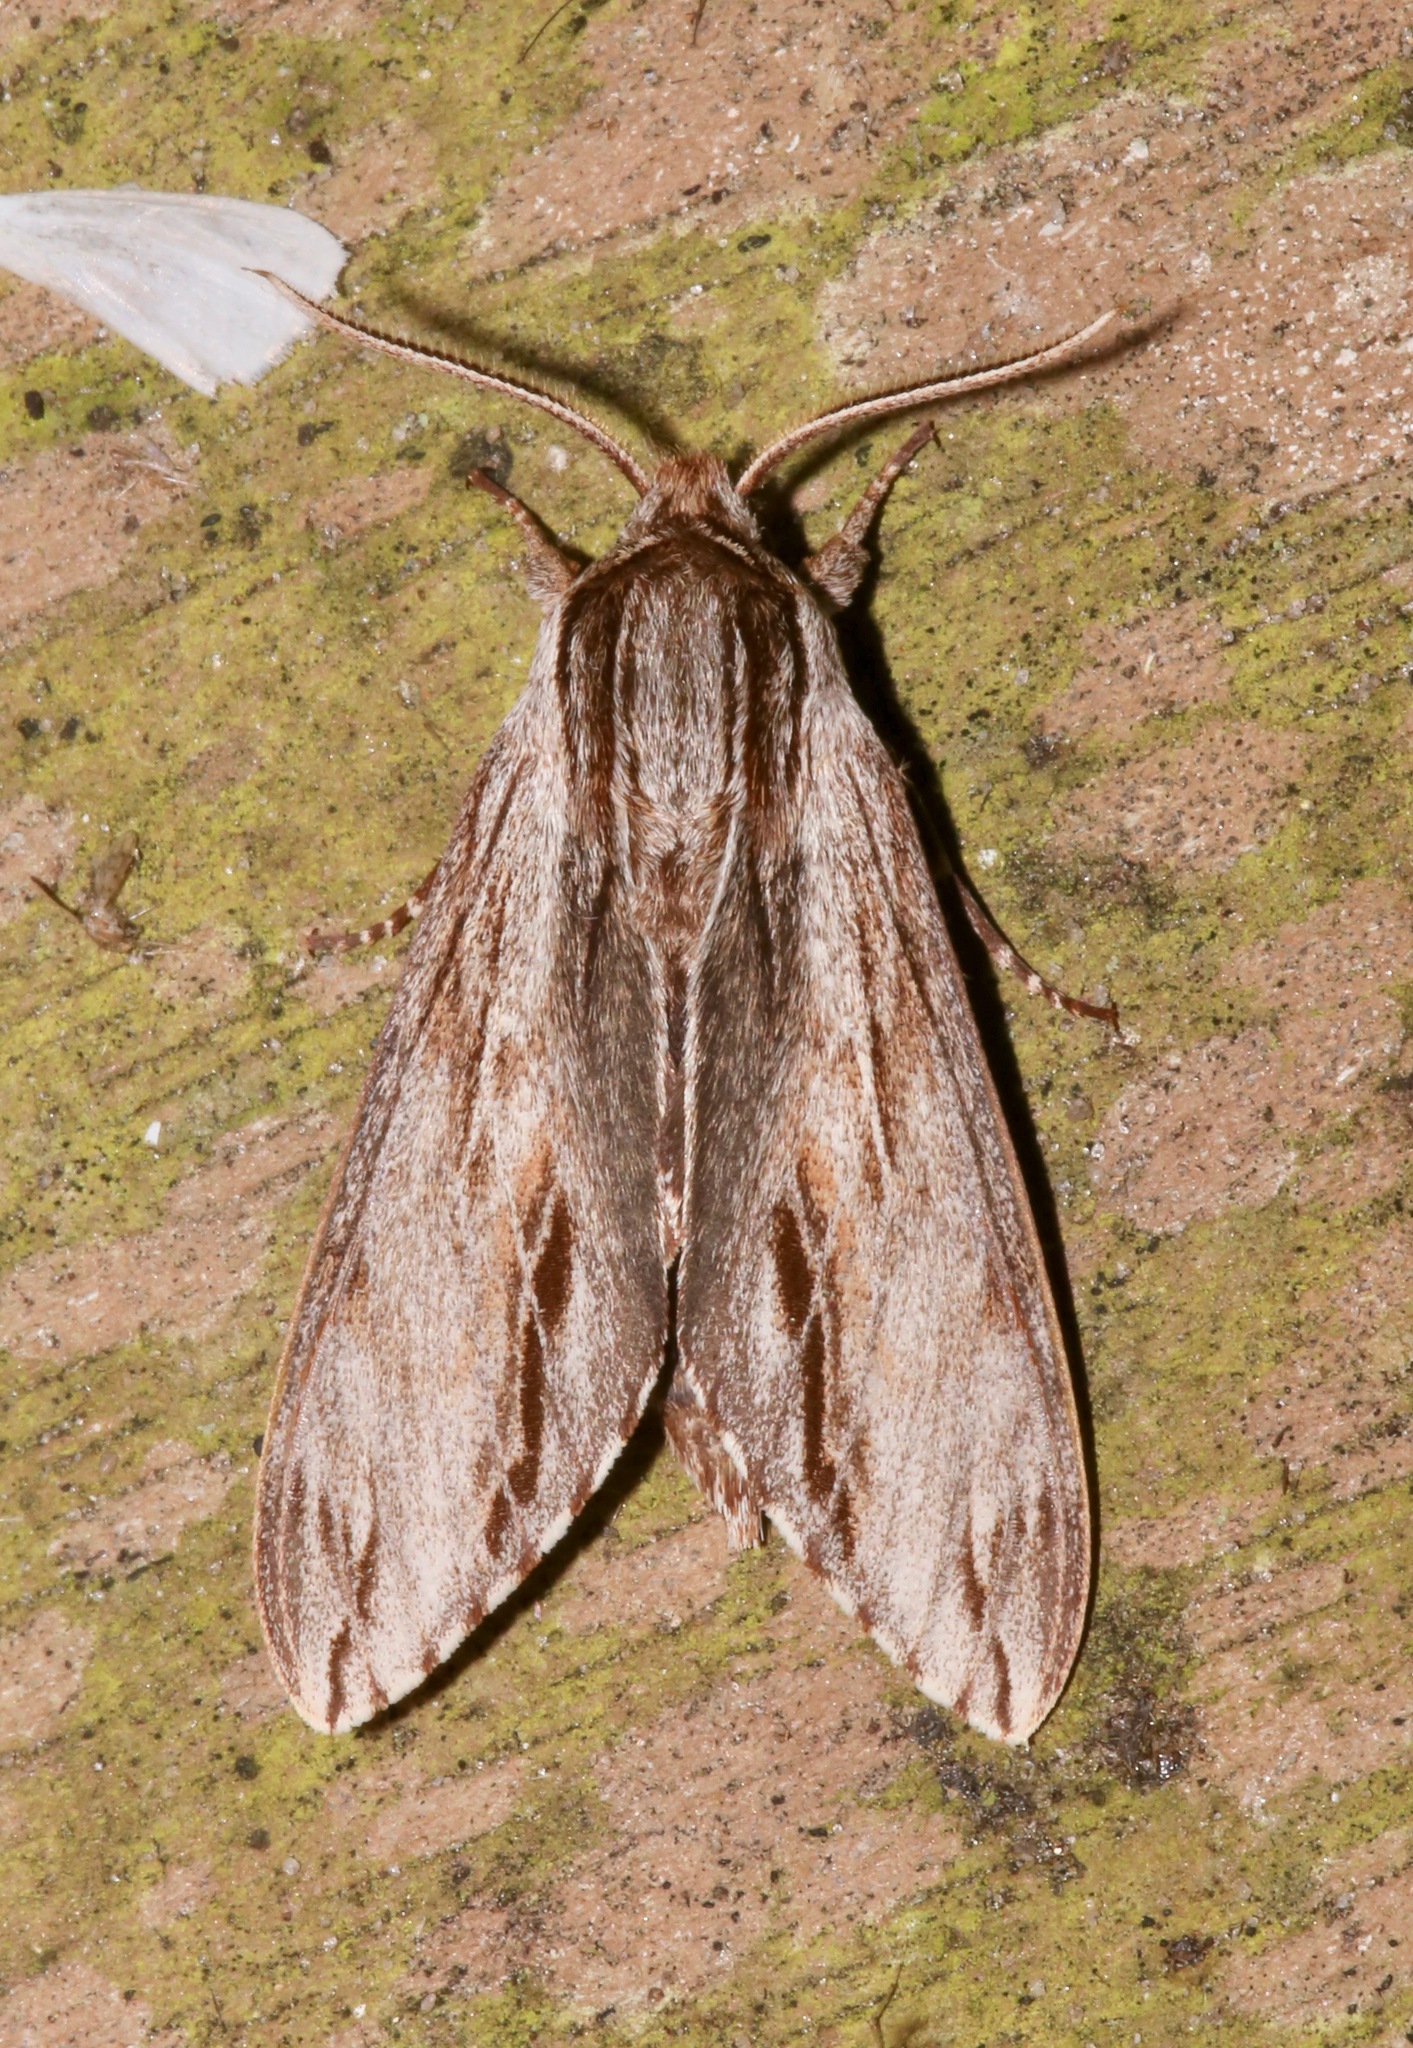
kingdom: Animalia
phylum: Arthropoda
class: Insecta
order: Lepidoptera
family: Sphingidae
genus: Isoparce
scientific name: Isoparce cupressi
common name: Cypress sphinx
